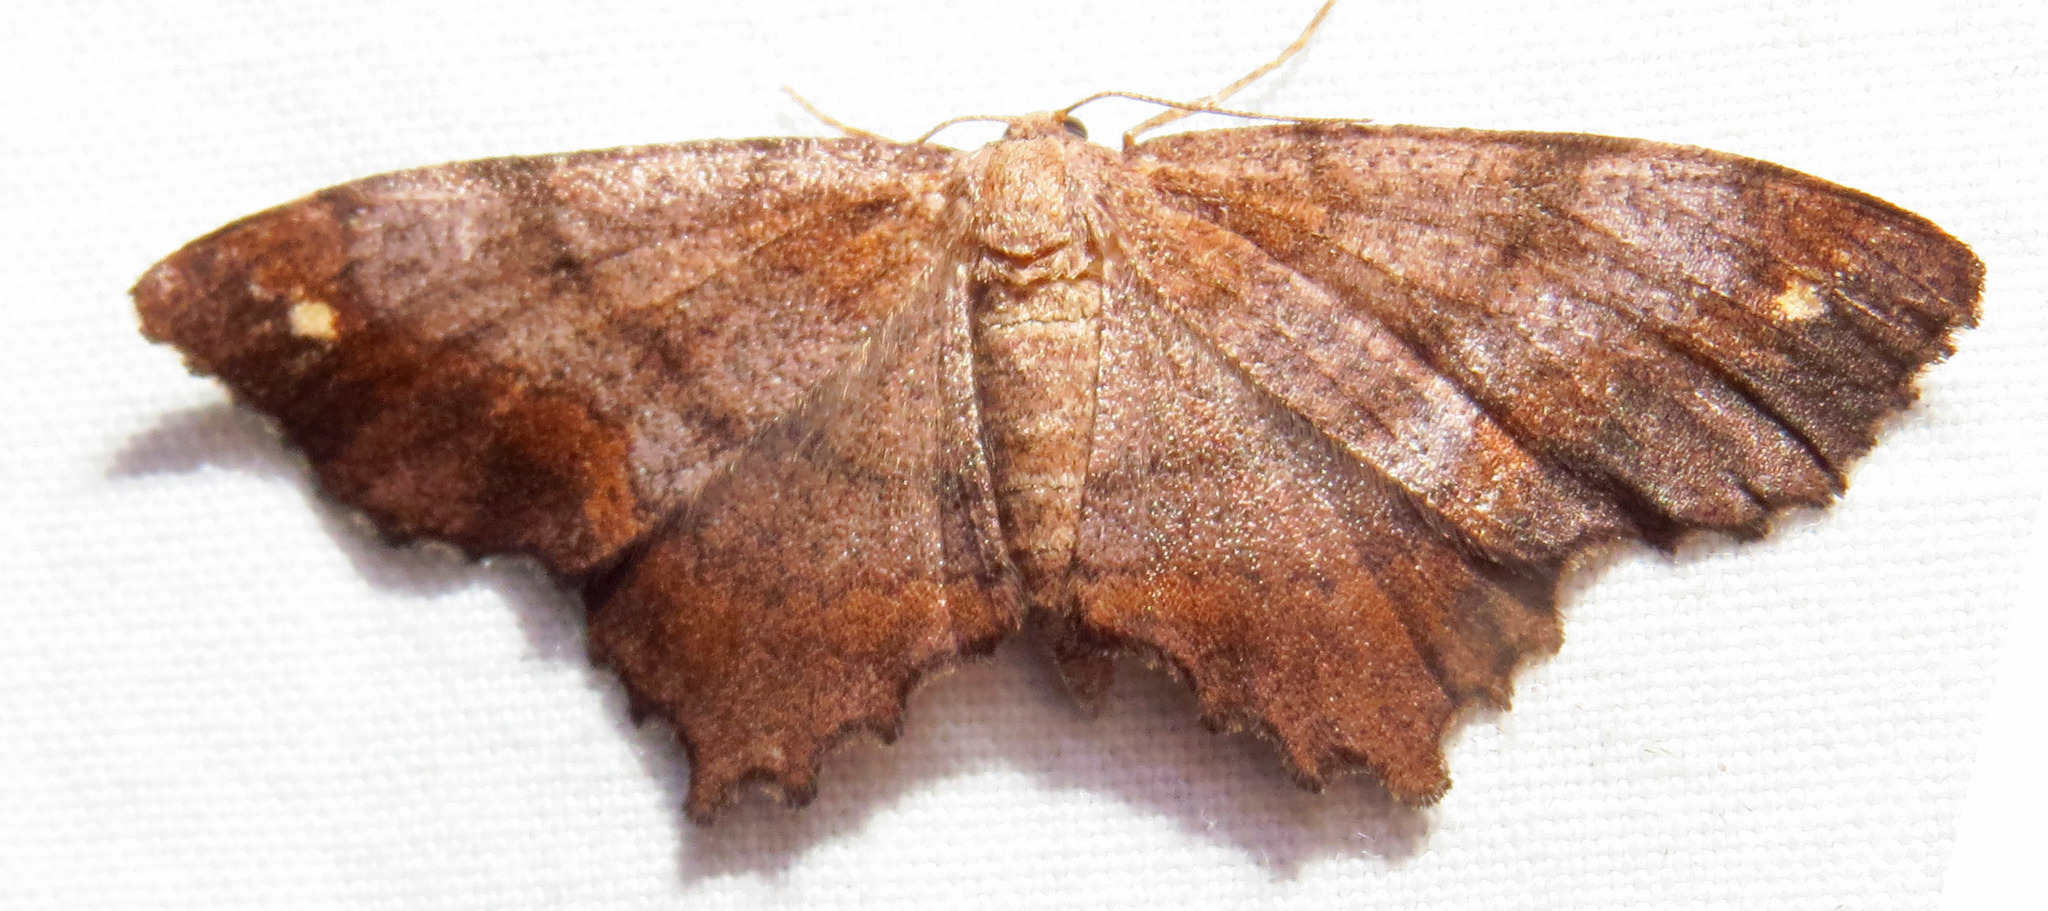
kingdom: Animalia
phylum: Arthropoda
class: Insecta
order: Lepidoptera
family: Geometridae
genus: Hypagyrtis
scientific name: Hypagyrtis unipunctata
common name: One-spotted variant
